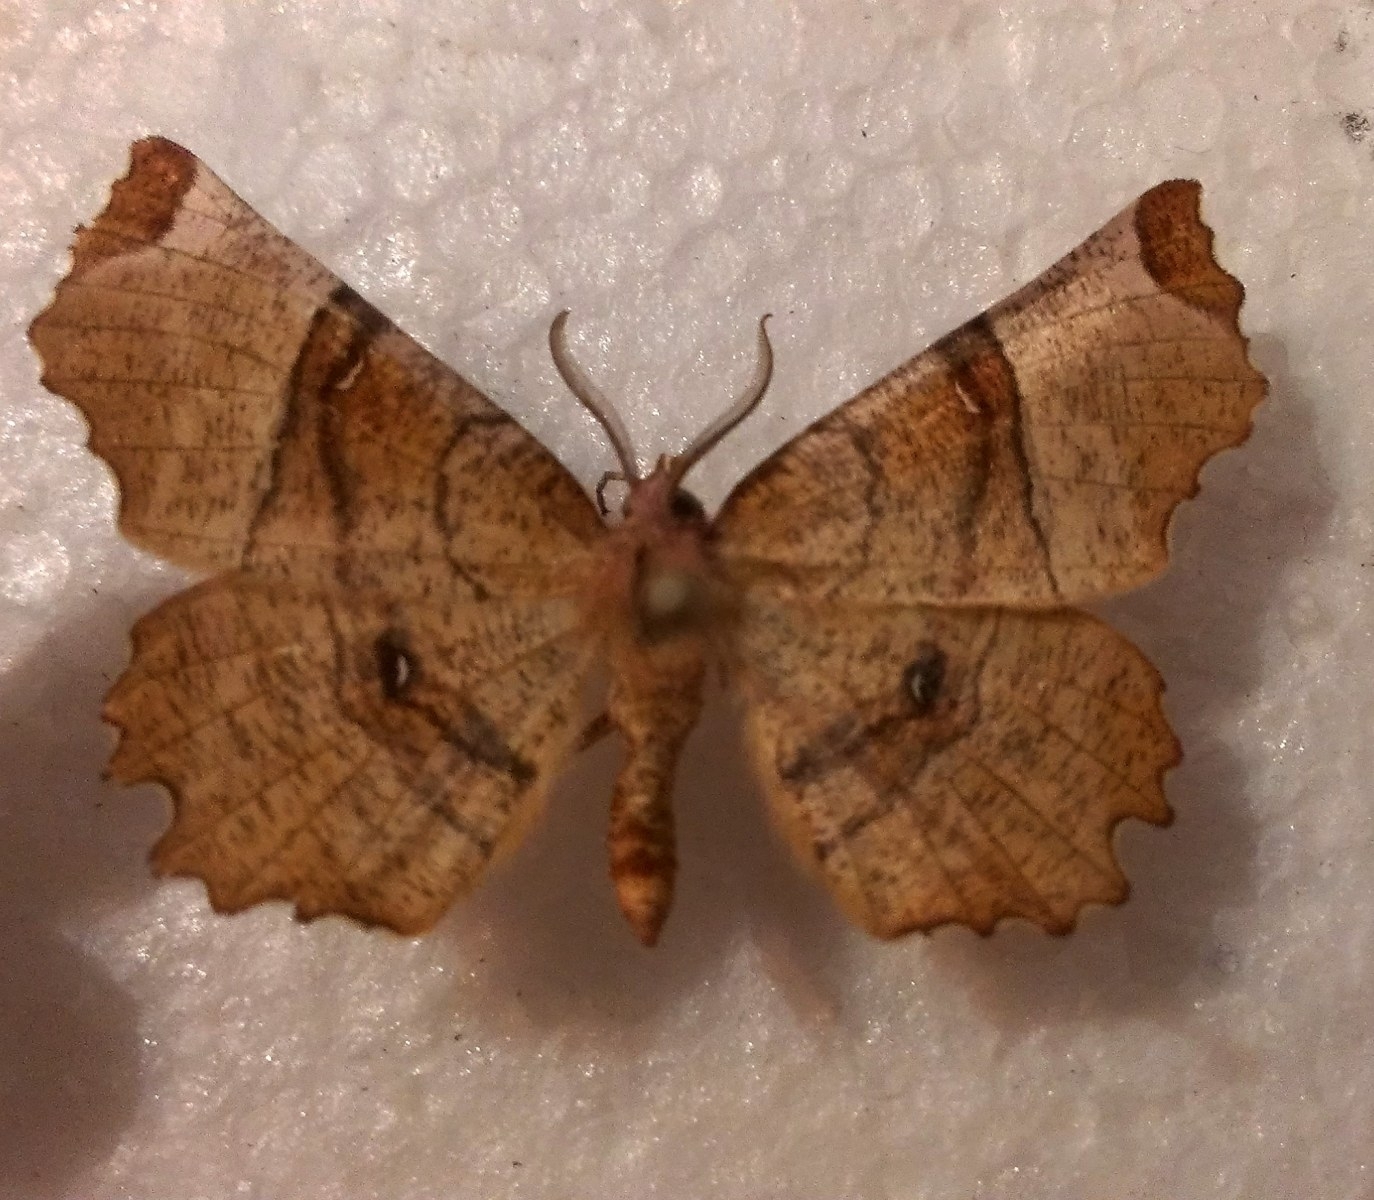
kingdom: Animalia
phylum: Arthropoda
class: Insecta
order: Lepidoptera
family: Geometridae
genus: Selenia
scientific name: Selenia lunularia
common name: Lunar thorn
